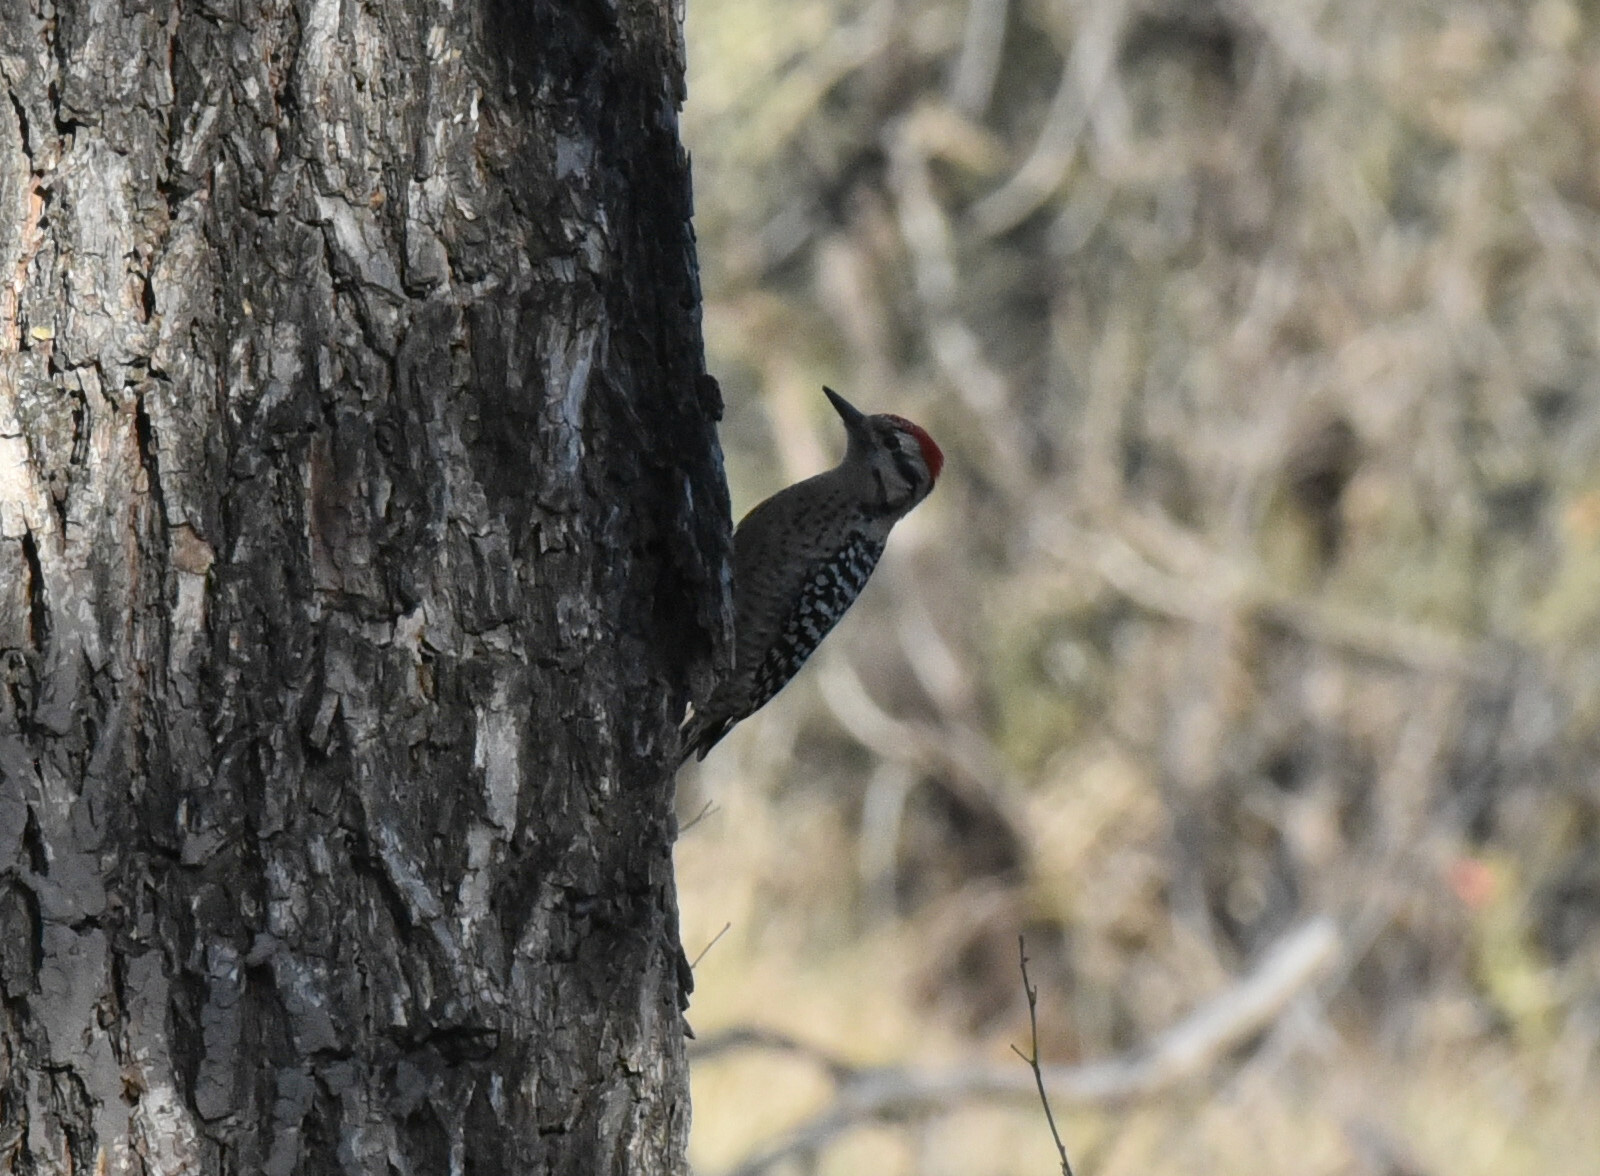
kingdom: Animalia
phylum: Chordata
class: Aves
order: Piciformes
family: Picidae
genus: Dryobates
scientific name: Dryobates scalaris
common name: Ladder-backed woodpecker
